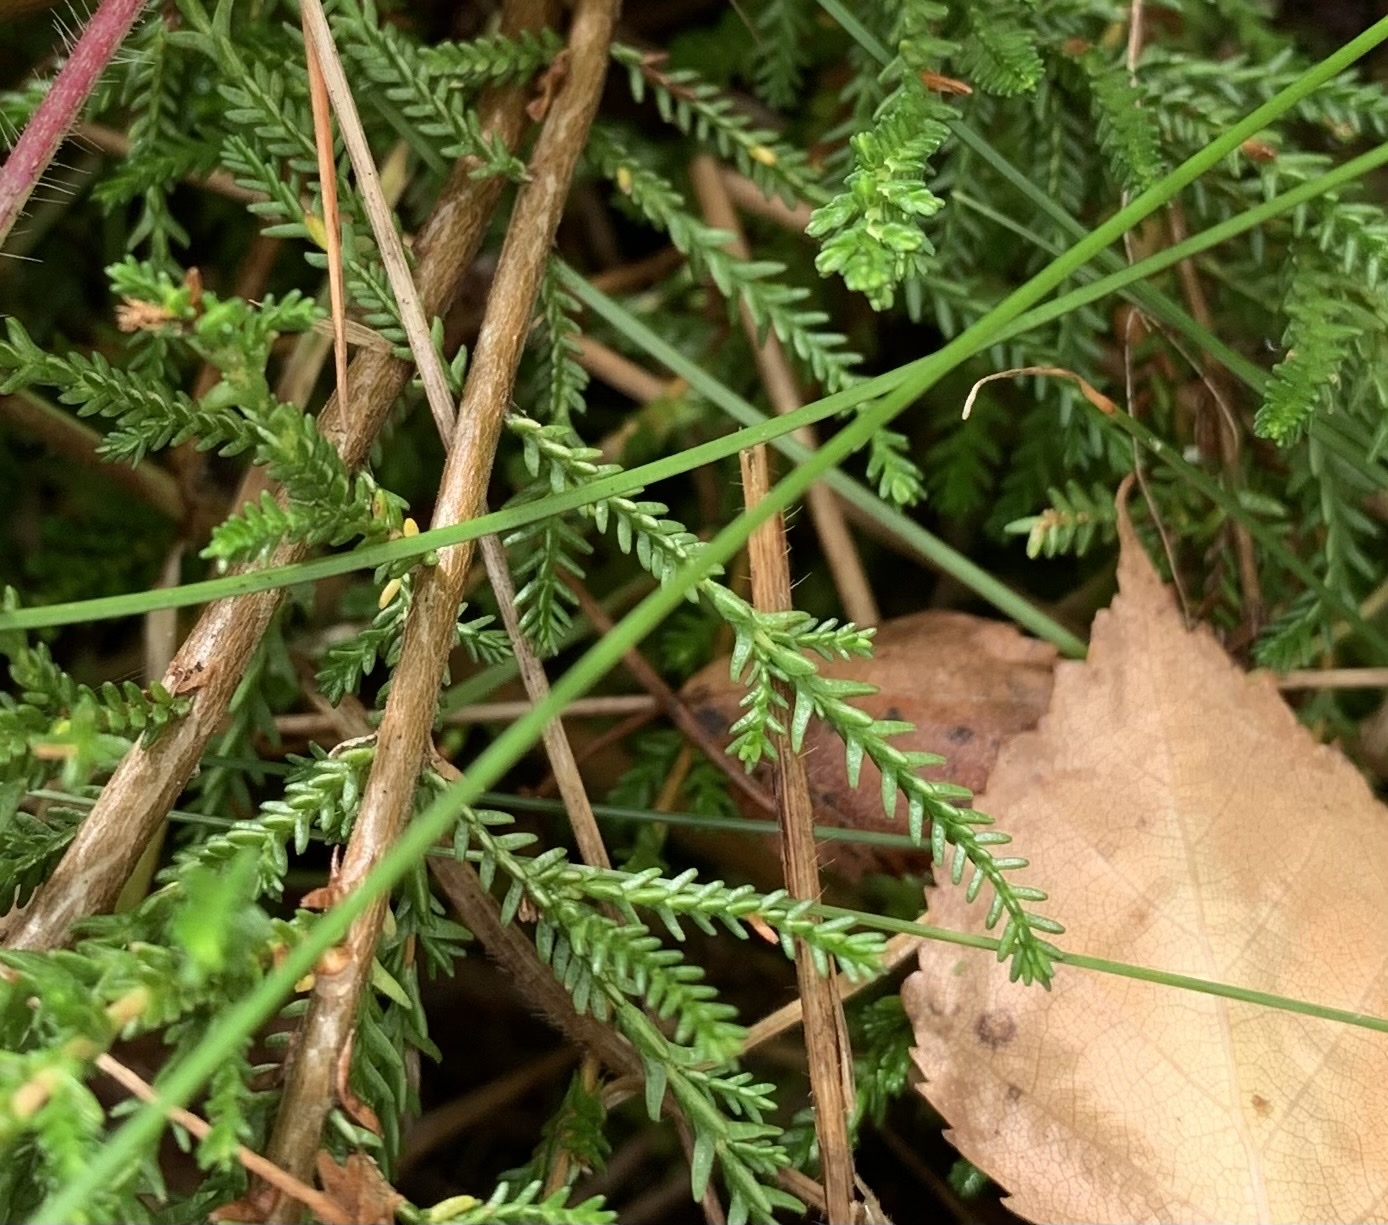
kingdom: Plantae
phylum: Tracheophyta
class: Magnoliopsida
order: Ericales
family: Ericaceae
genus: Calluna
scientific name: Calluna vulgaris
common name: Heather
